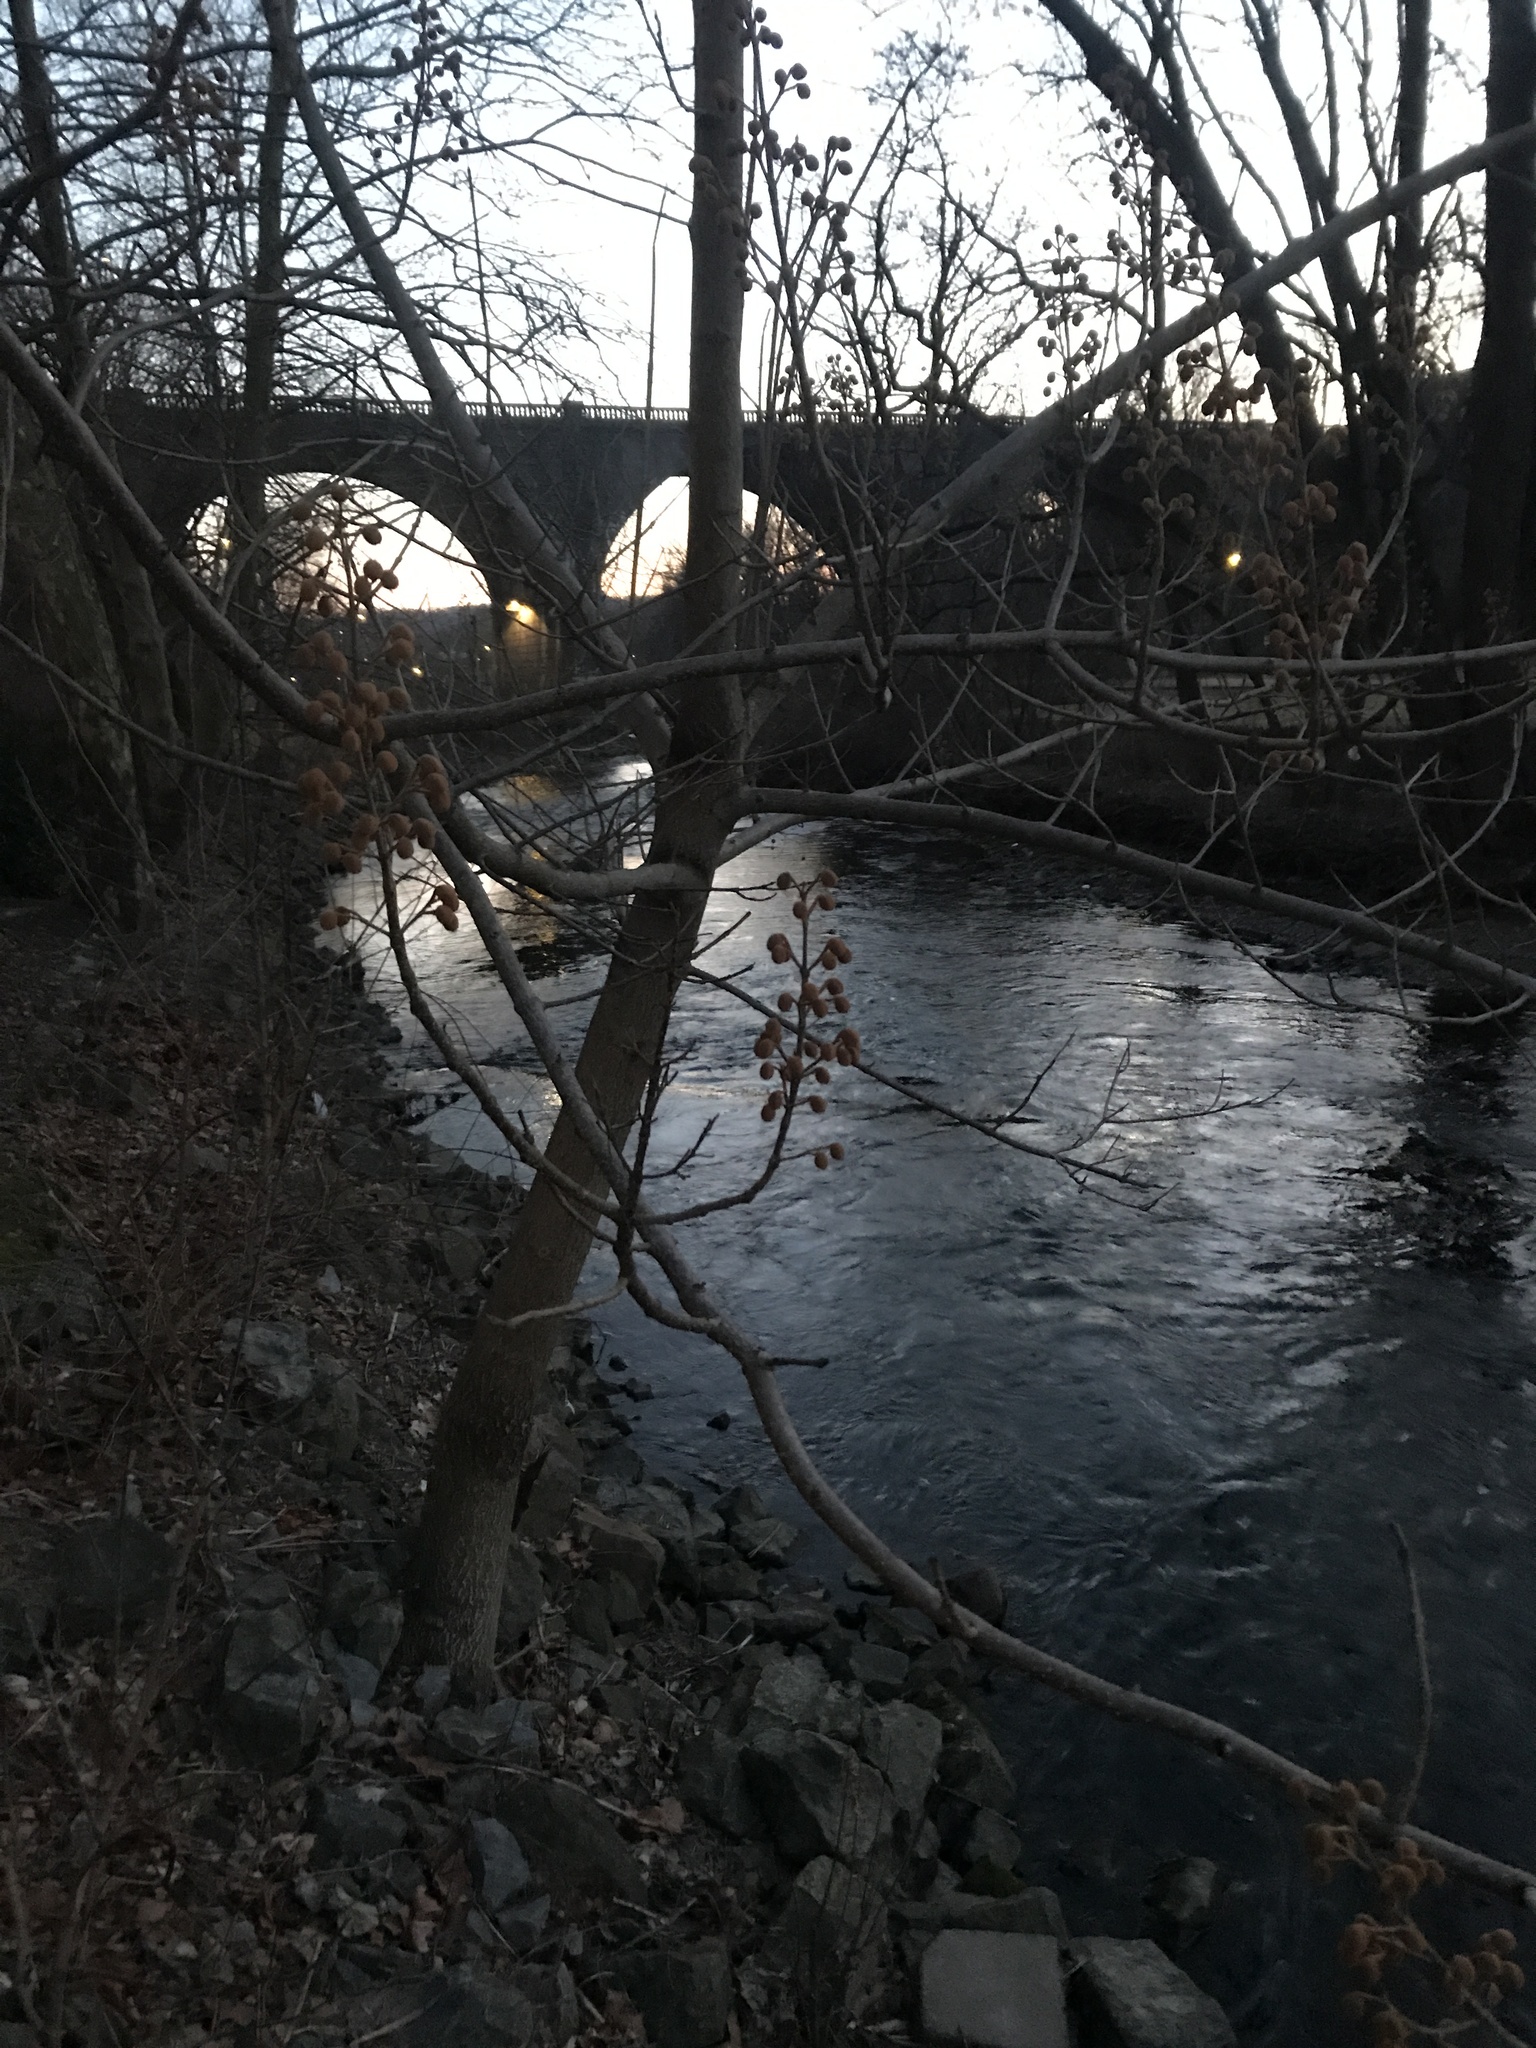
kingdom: Plantae
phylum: Tracheophyta
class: Magnoliopsida
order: Lamiales
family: Paulowniaceae
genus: Paulownia
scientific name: Paulownia tomentosa
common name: Foxglove-tree
